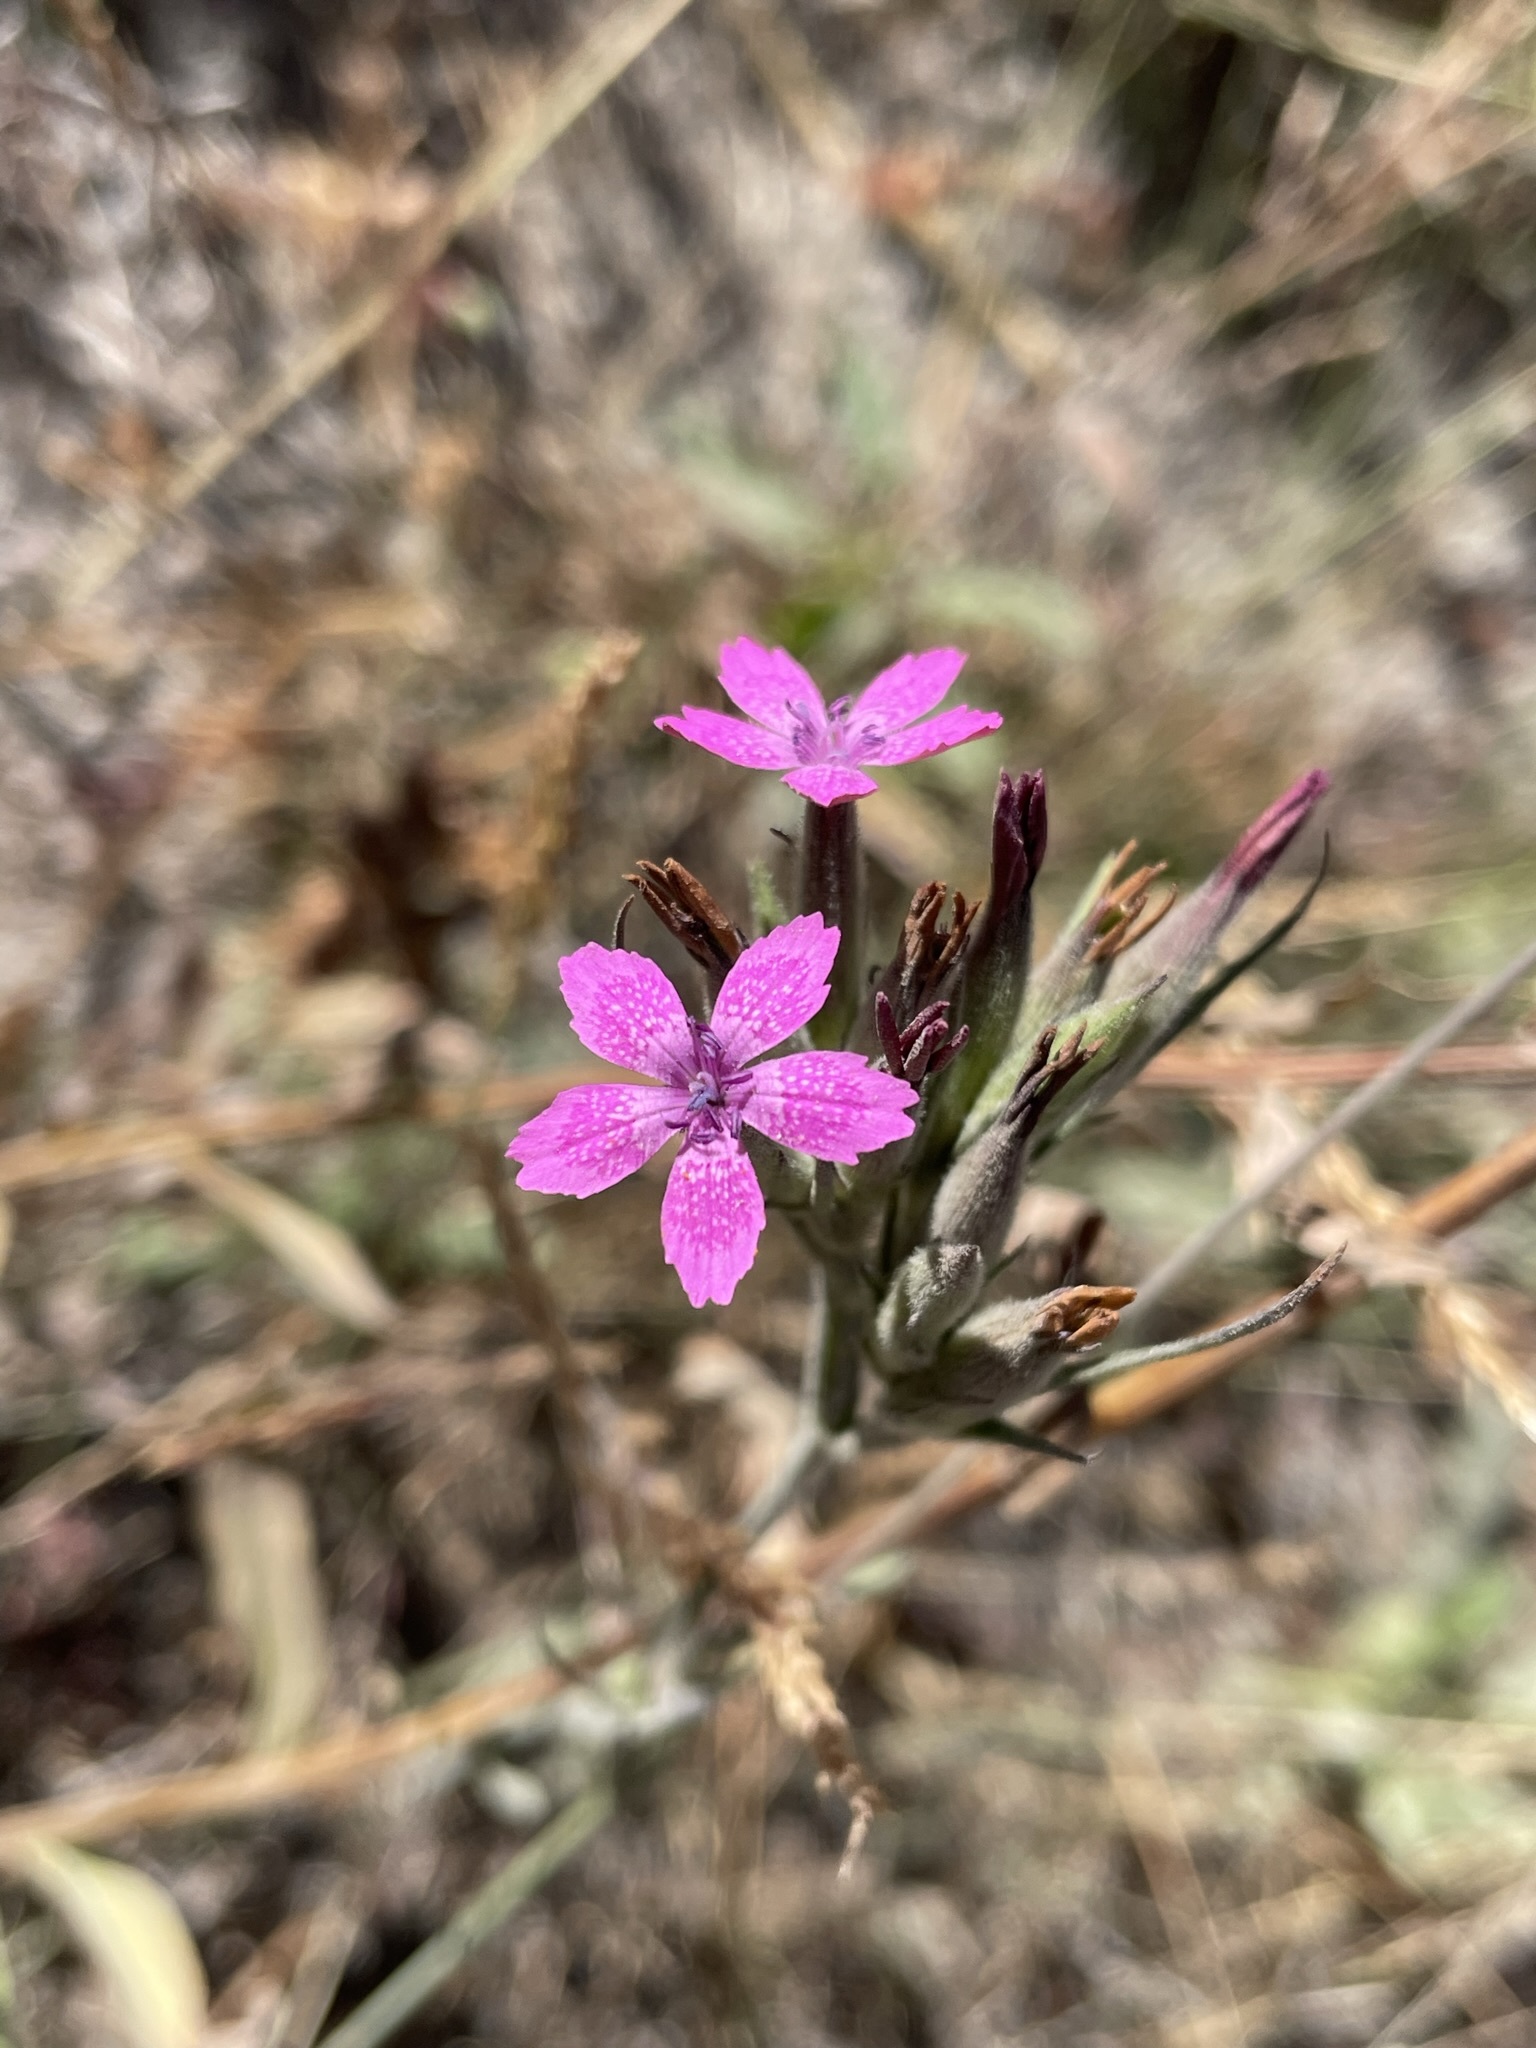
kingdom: Plantae
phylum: Tracheophyta
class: Magnoliopsida
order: Caryophyllales
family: Caryophyllaceae
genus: Dianthus
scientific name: Dianthus armeria
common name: Deptford pink
